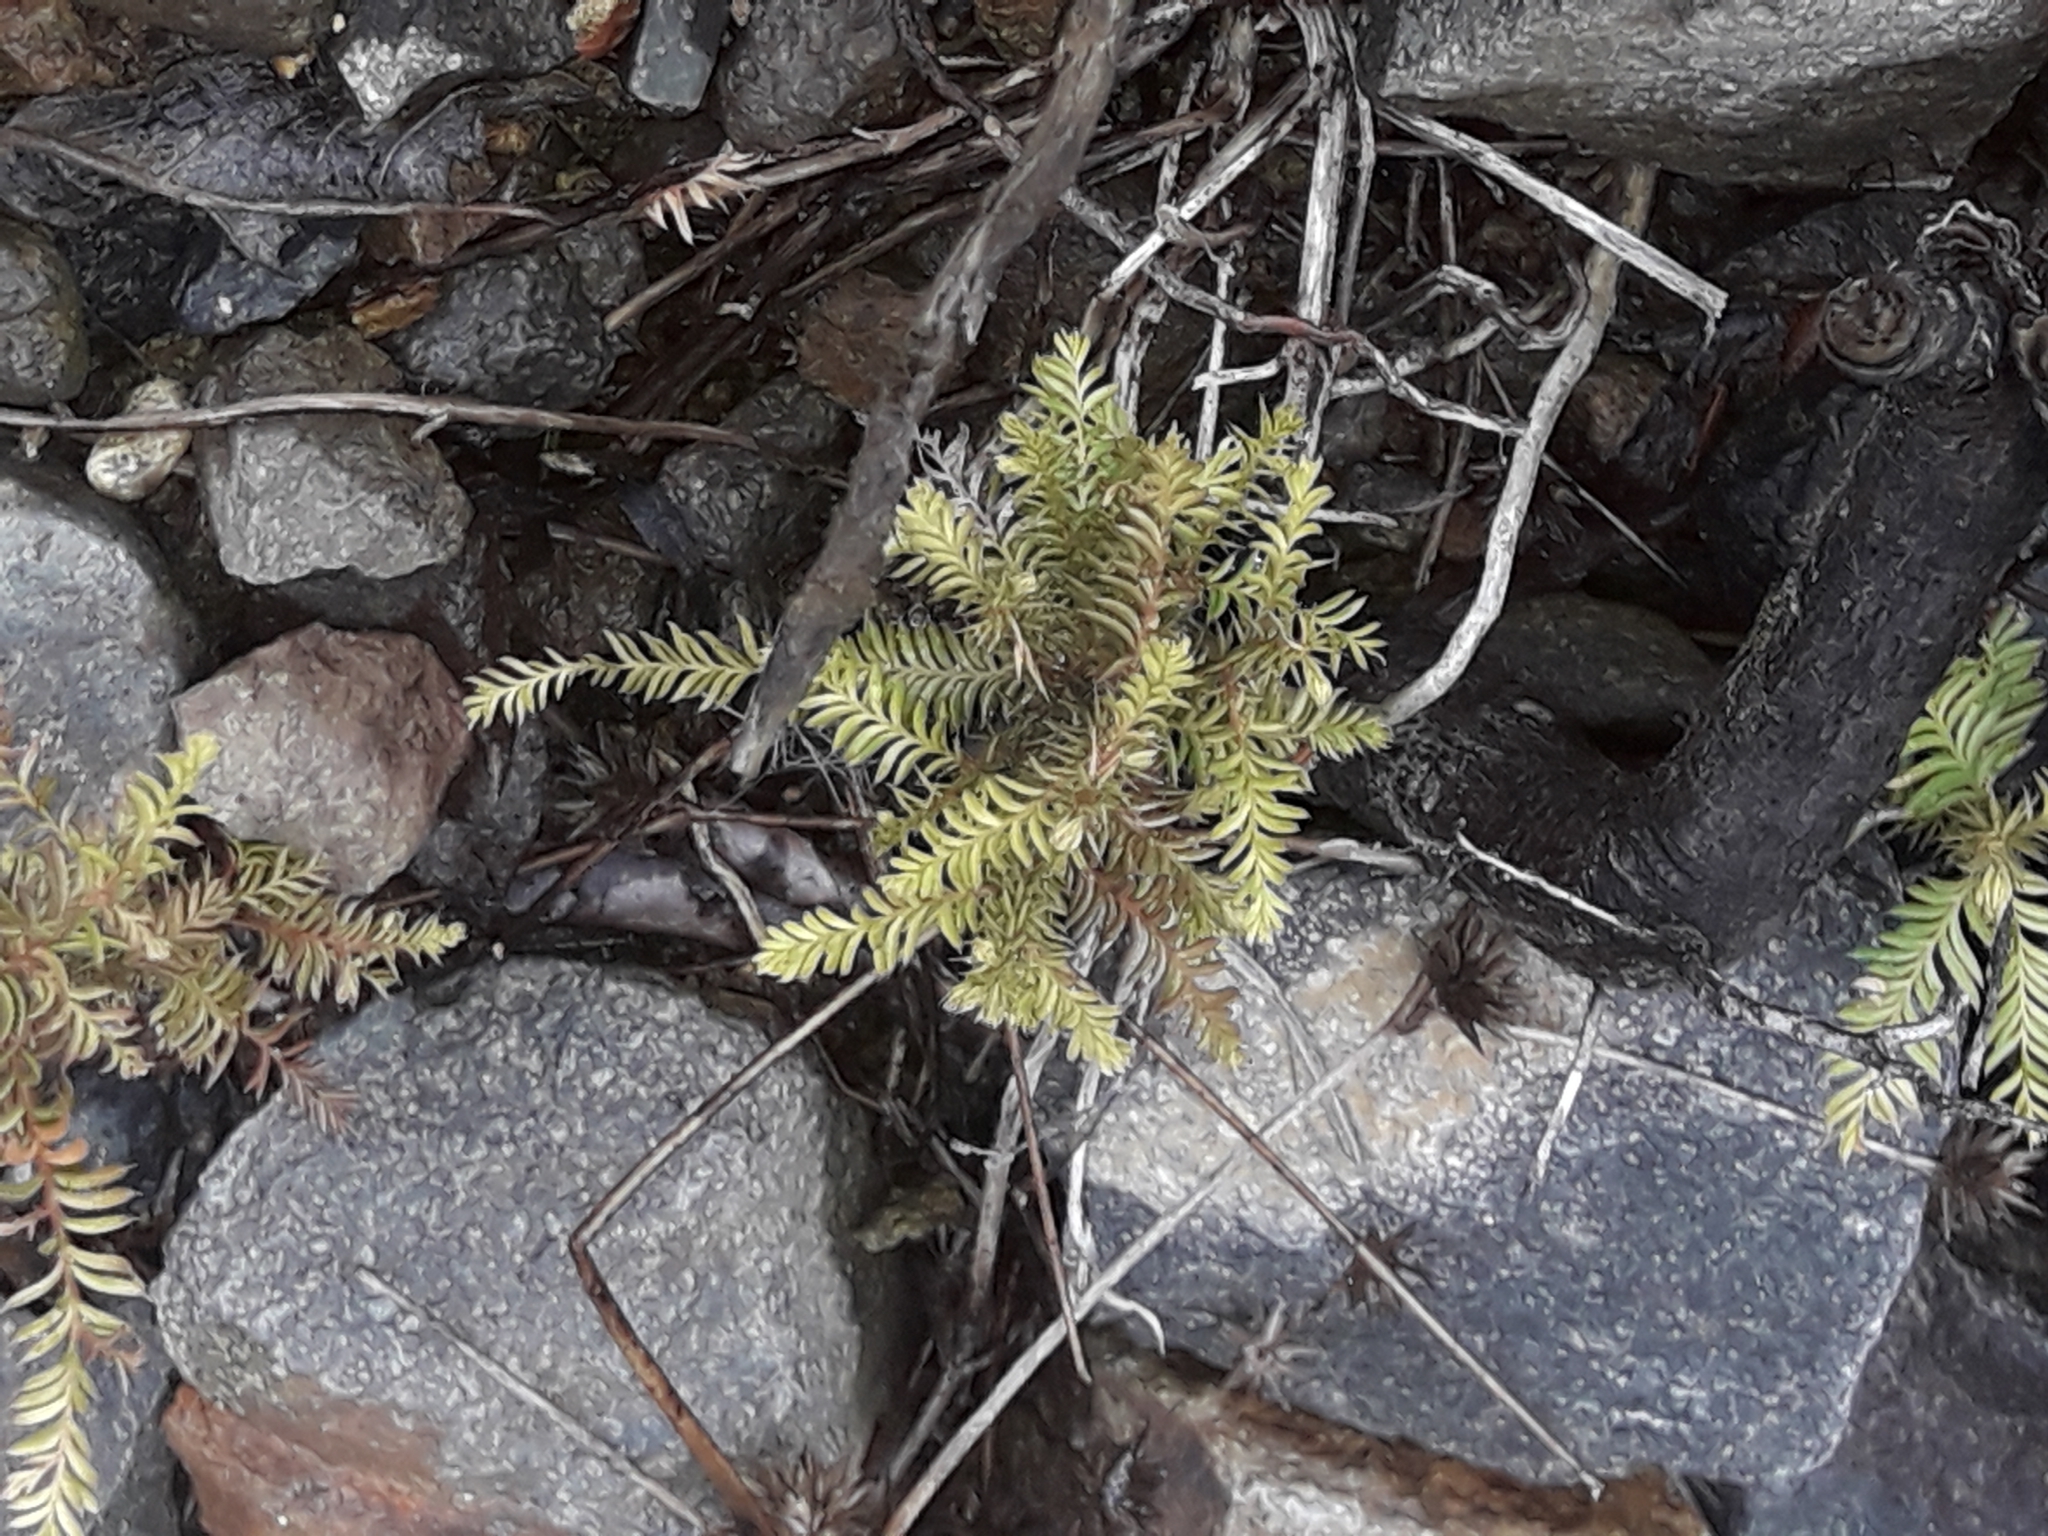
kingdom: Plantae
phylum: Tracheophyta
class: Pinopsida
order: Pinales
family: Podocarpaceae
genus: Dacrycarpus
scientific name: Dacrycarpus dacrydioides
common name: White pine
